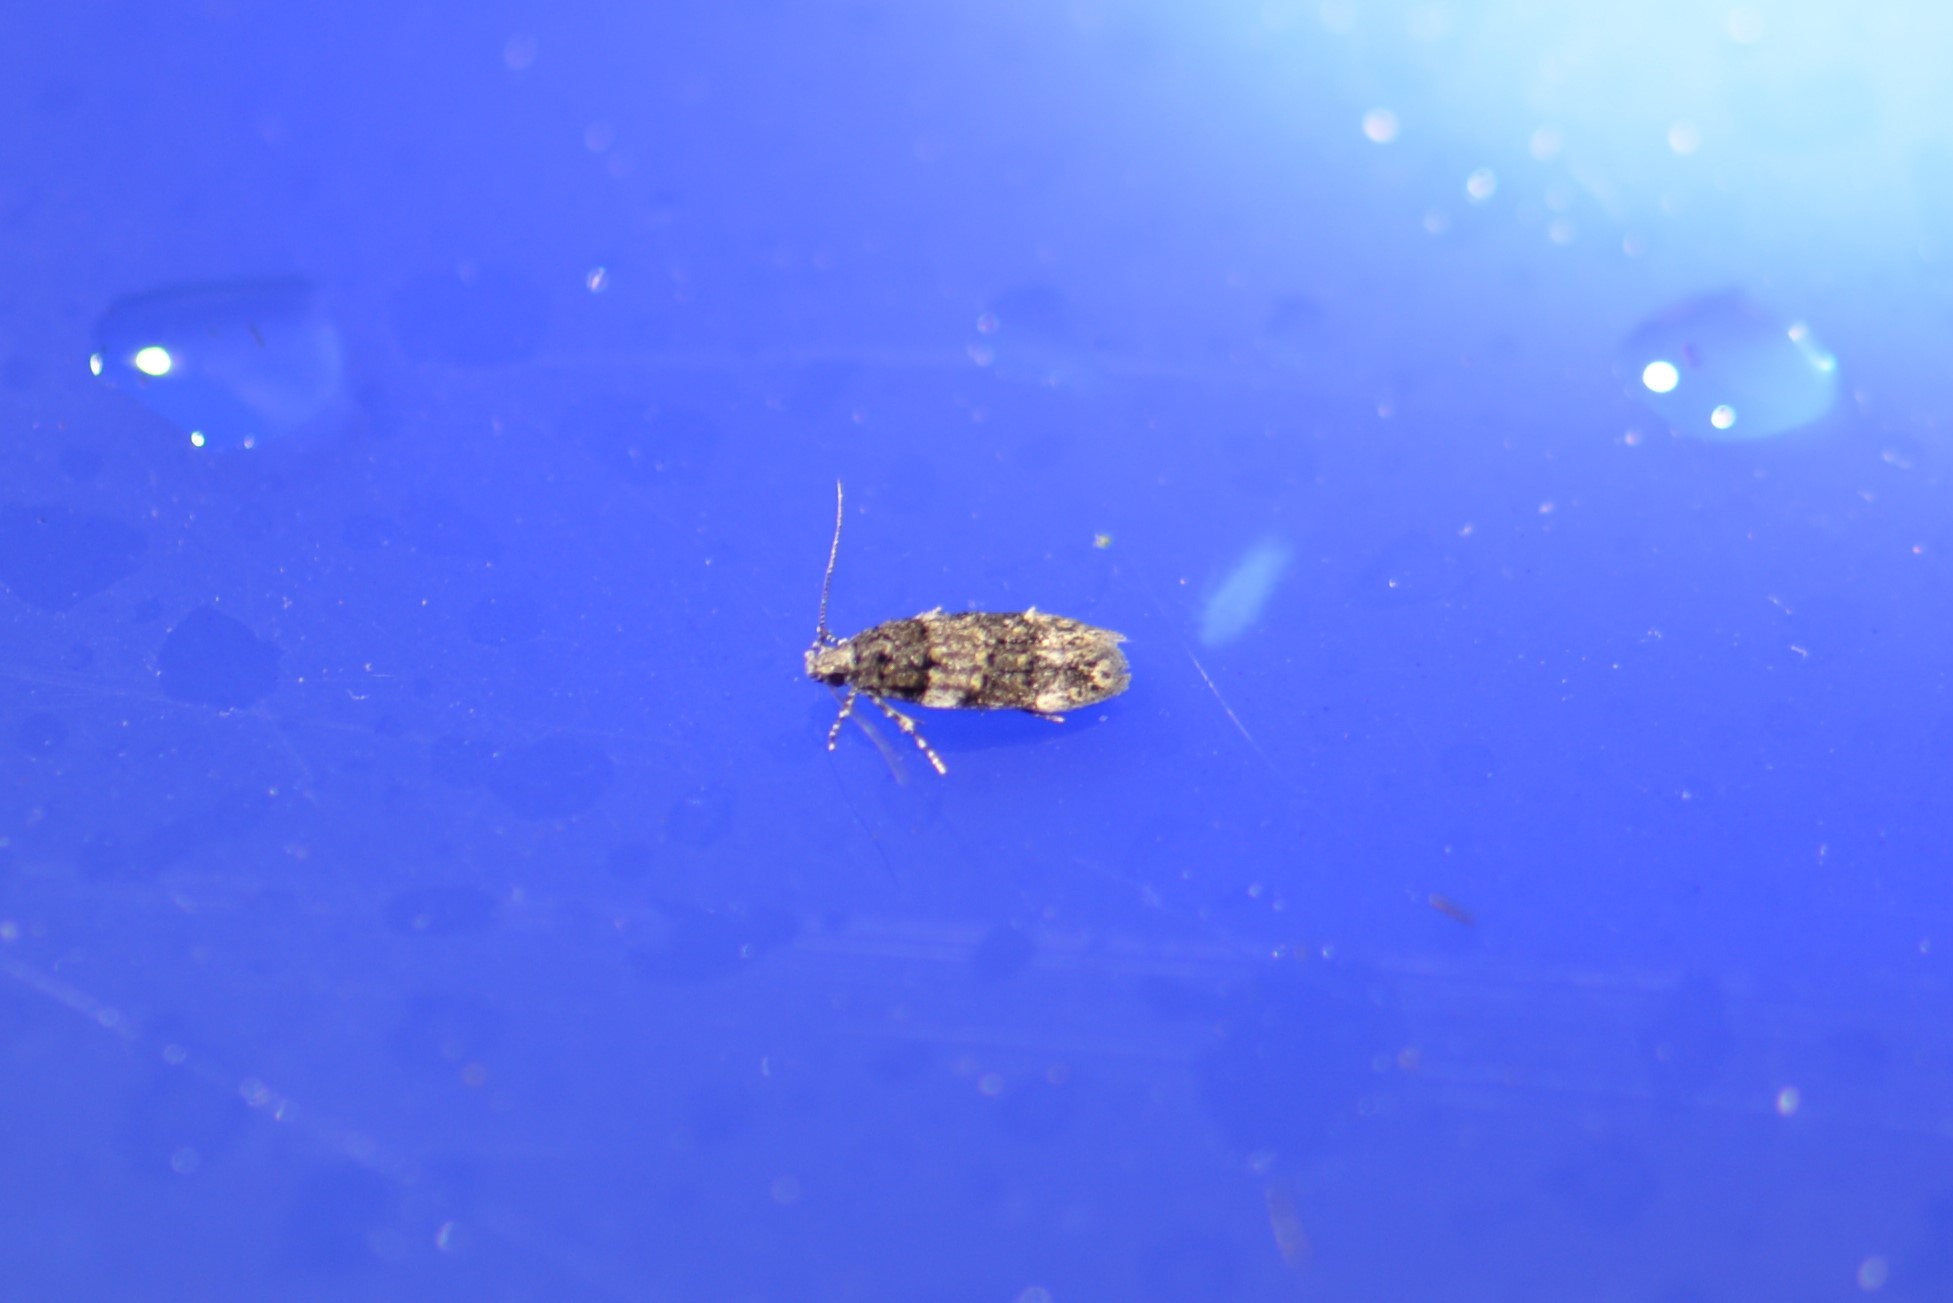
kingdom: Animalia
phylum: Arthropoda
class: Insecta
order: Lepidoptera
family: Gelechiidae
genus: Pubitelphusa
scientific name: Pubitelphusa latifasciella
